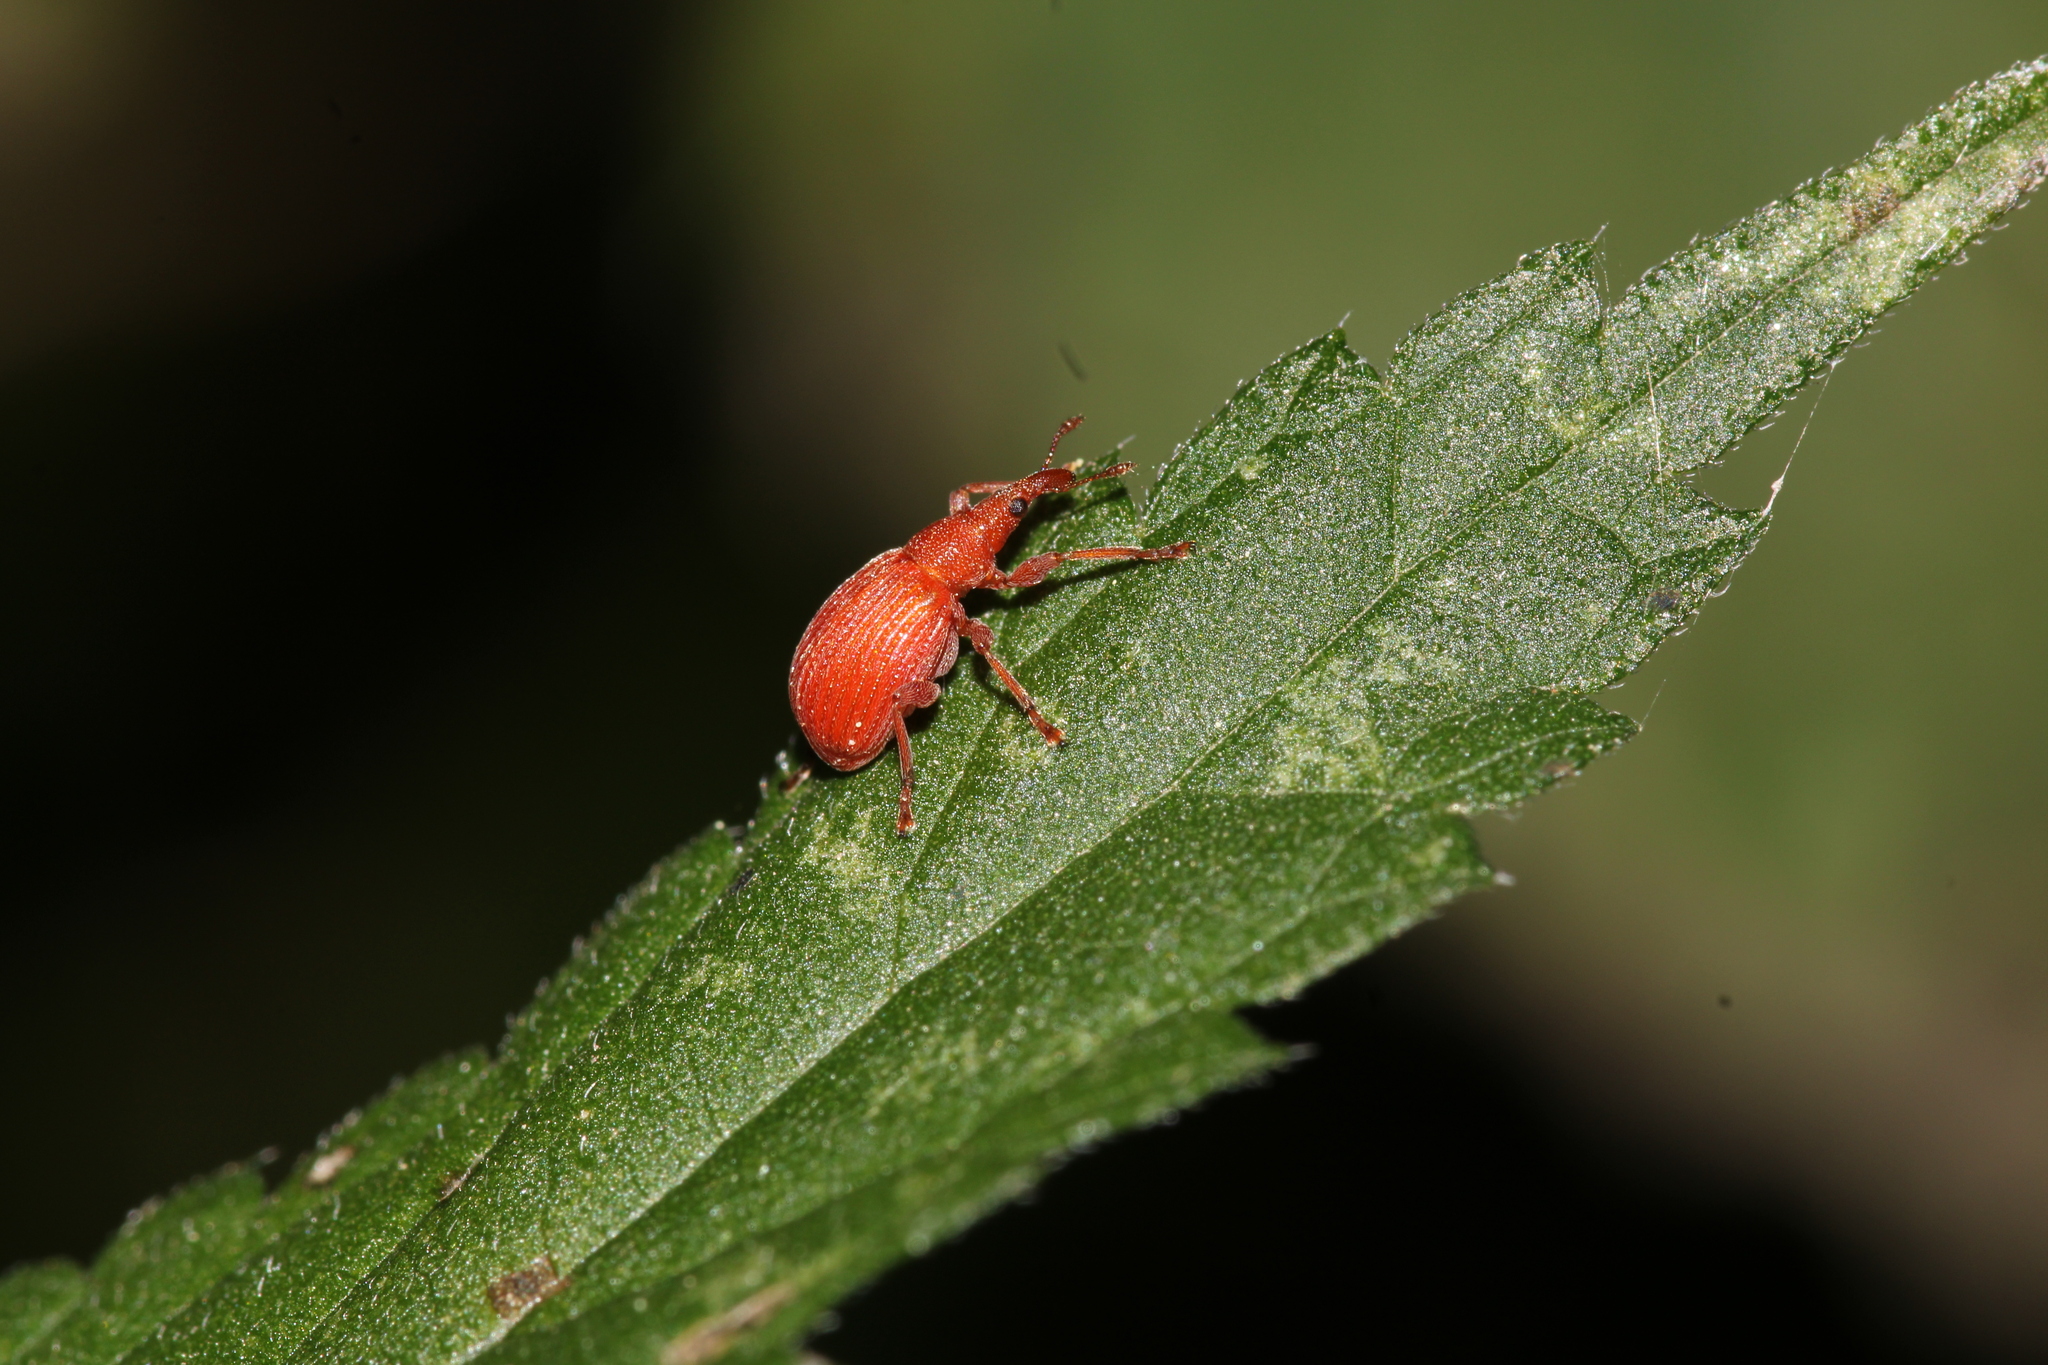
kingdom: Animalia
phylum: Arthropoda
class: Insecta
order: Coleoptera
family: Apionidae
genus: Apion
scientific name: Apion frumentarium
